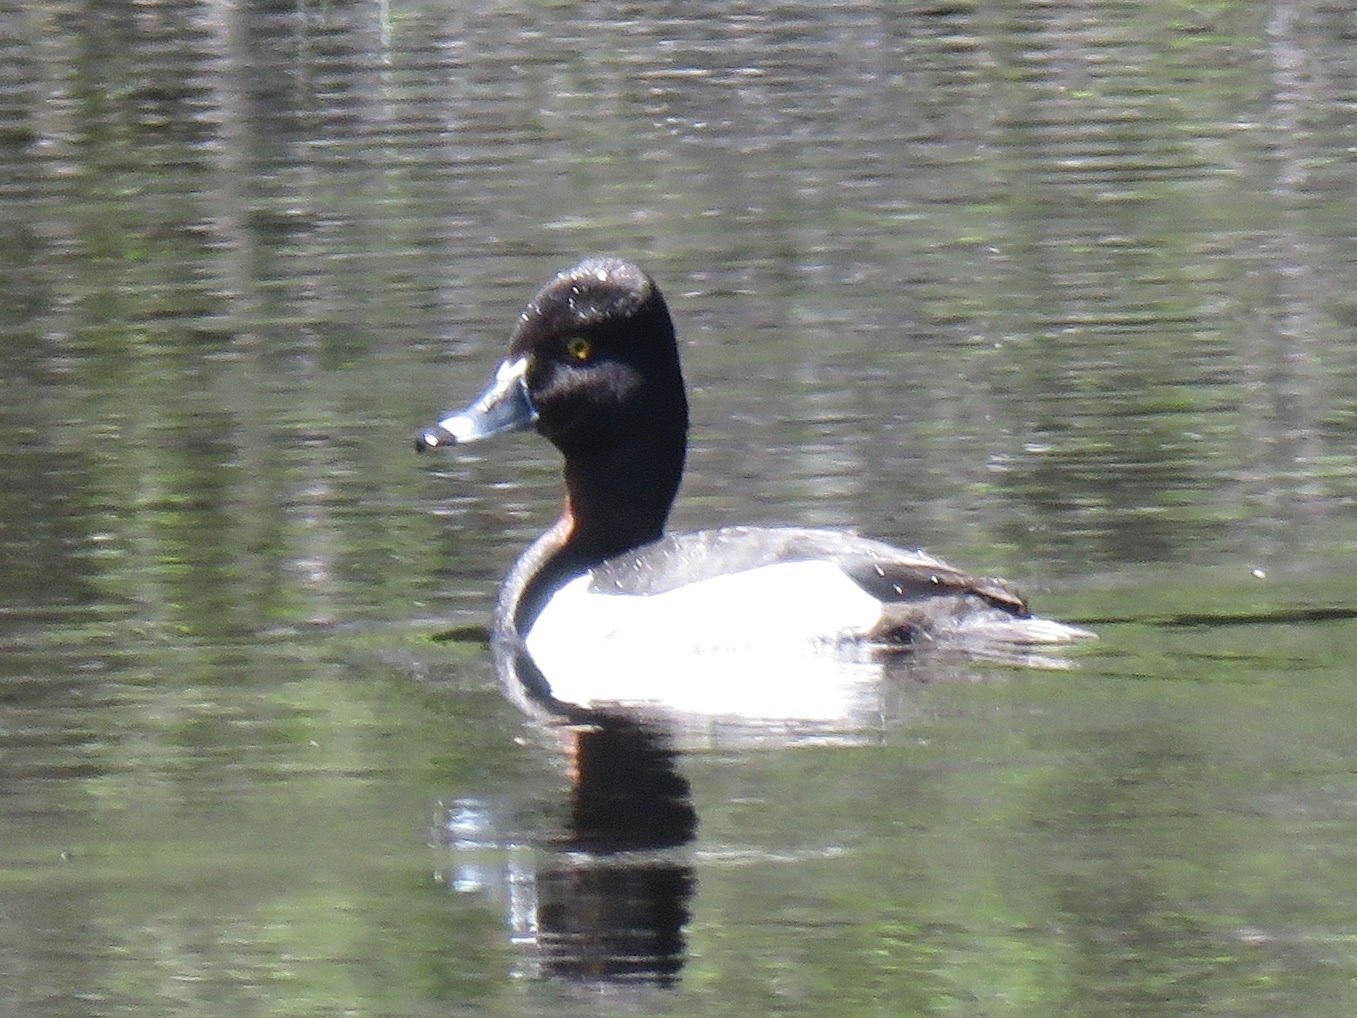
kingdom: Animalia
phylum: Chordata
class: Aves
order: Anseriformes
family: Anatidae
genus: Aythya
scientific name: Aythya collaris
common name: Ring-necked duck
